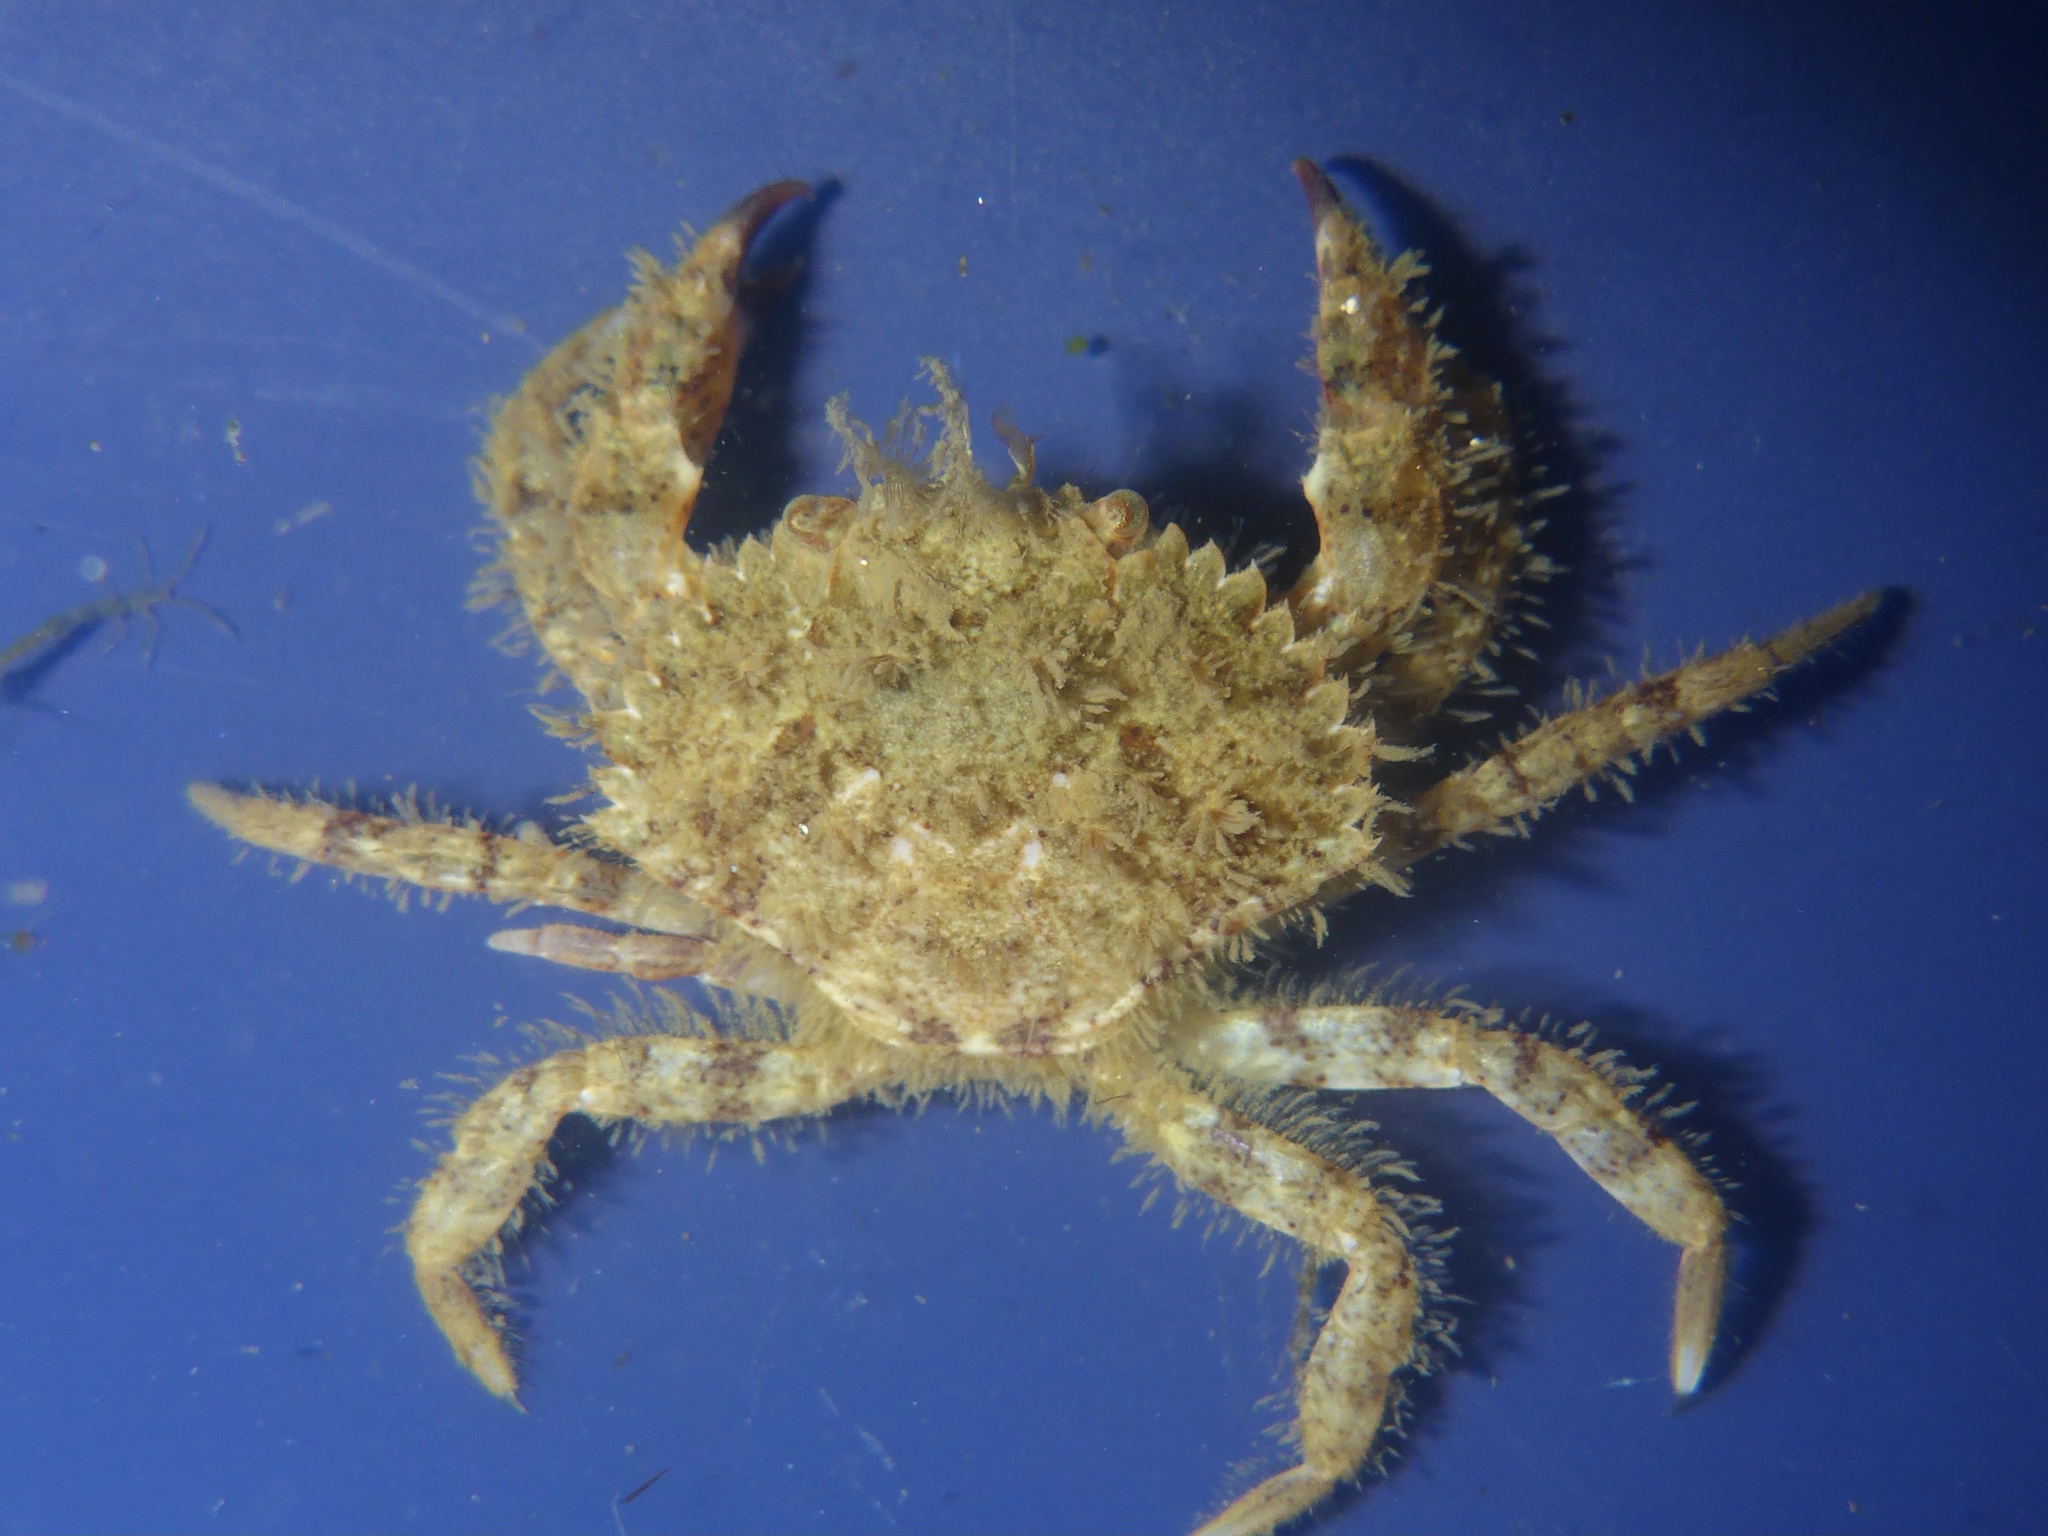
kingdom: Animalia
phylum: Arthropoda
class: Malacostraca
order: Decapoda
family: Cancridae
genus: Romaleon
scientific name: Romaleon jordani
